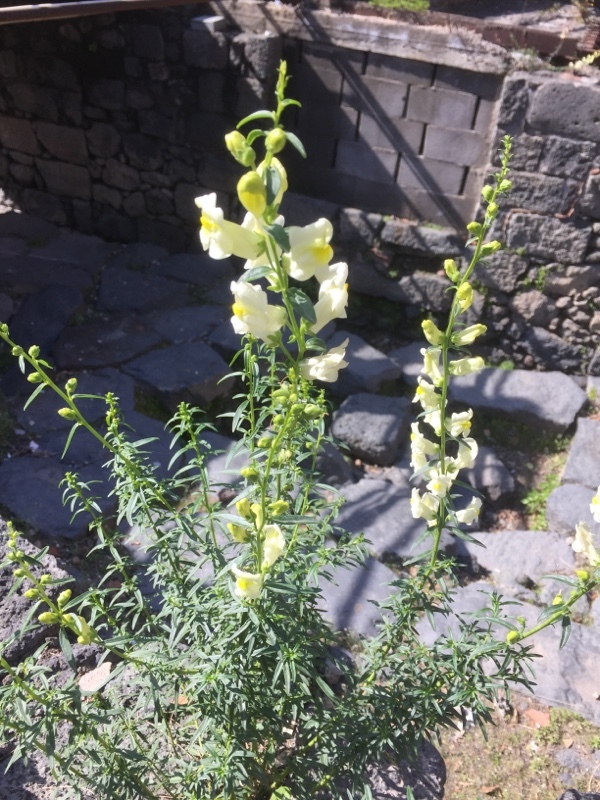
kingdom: Plantae
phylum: Tracheophyta
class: Magnoliopsida
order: Lamiales
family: Plantaginaceae
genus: Antirrhinum
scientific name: Antirrhinum siculum
